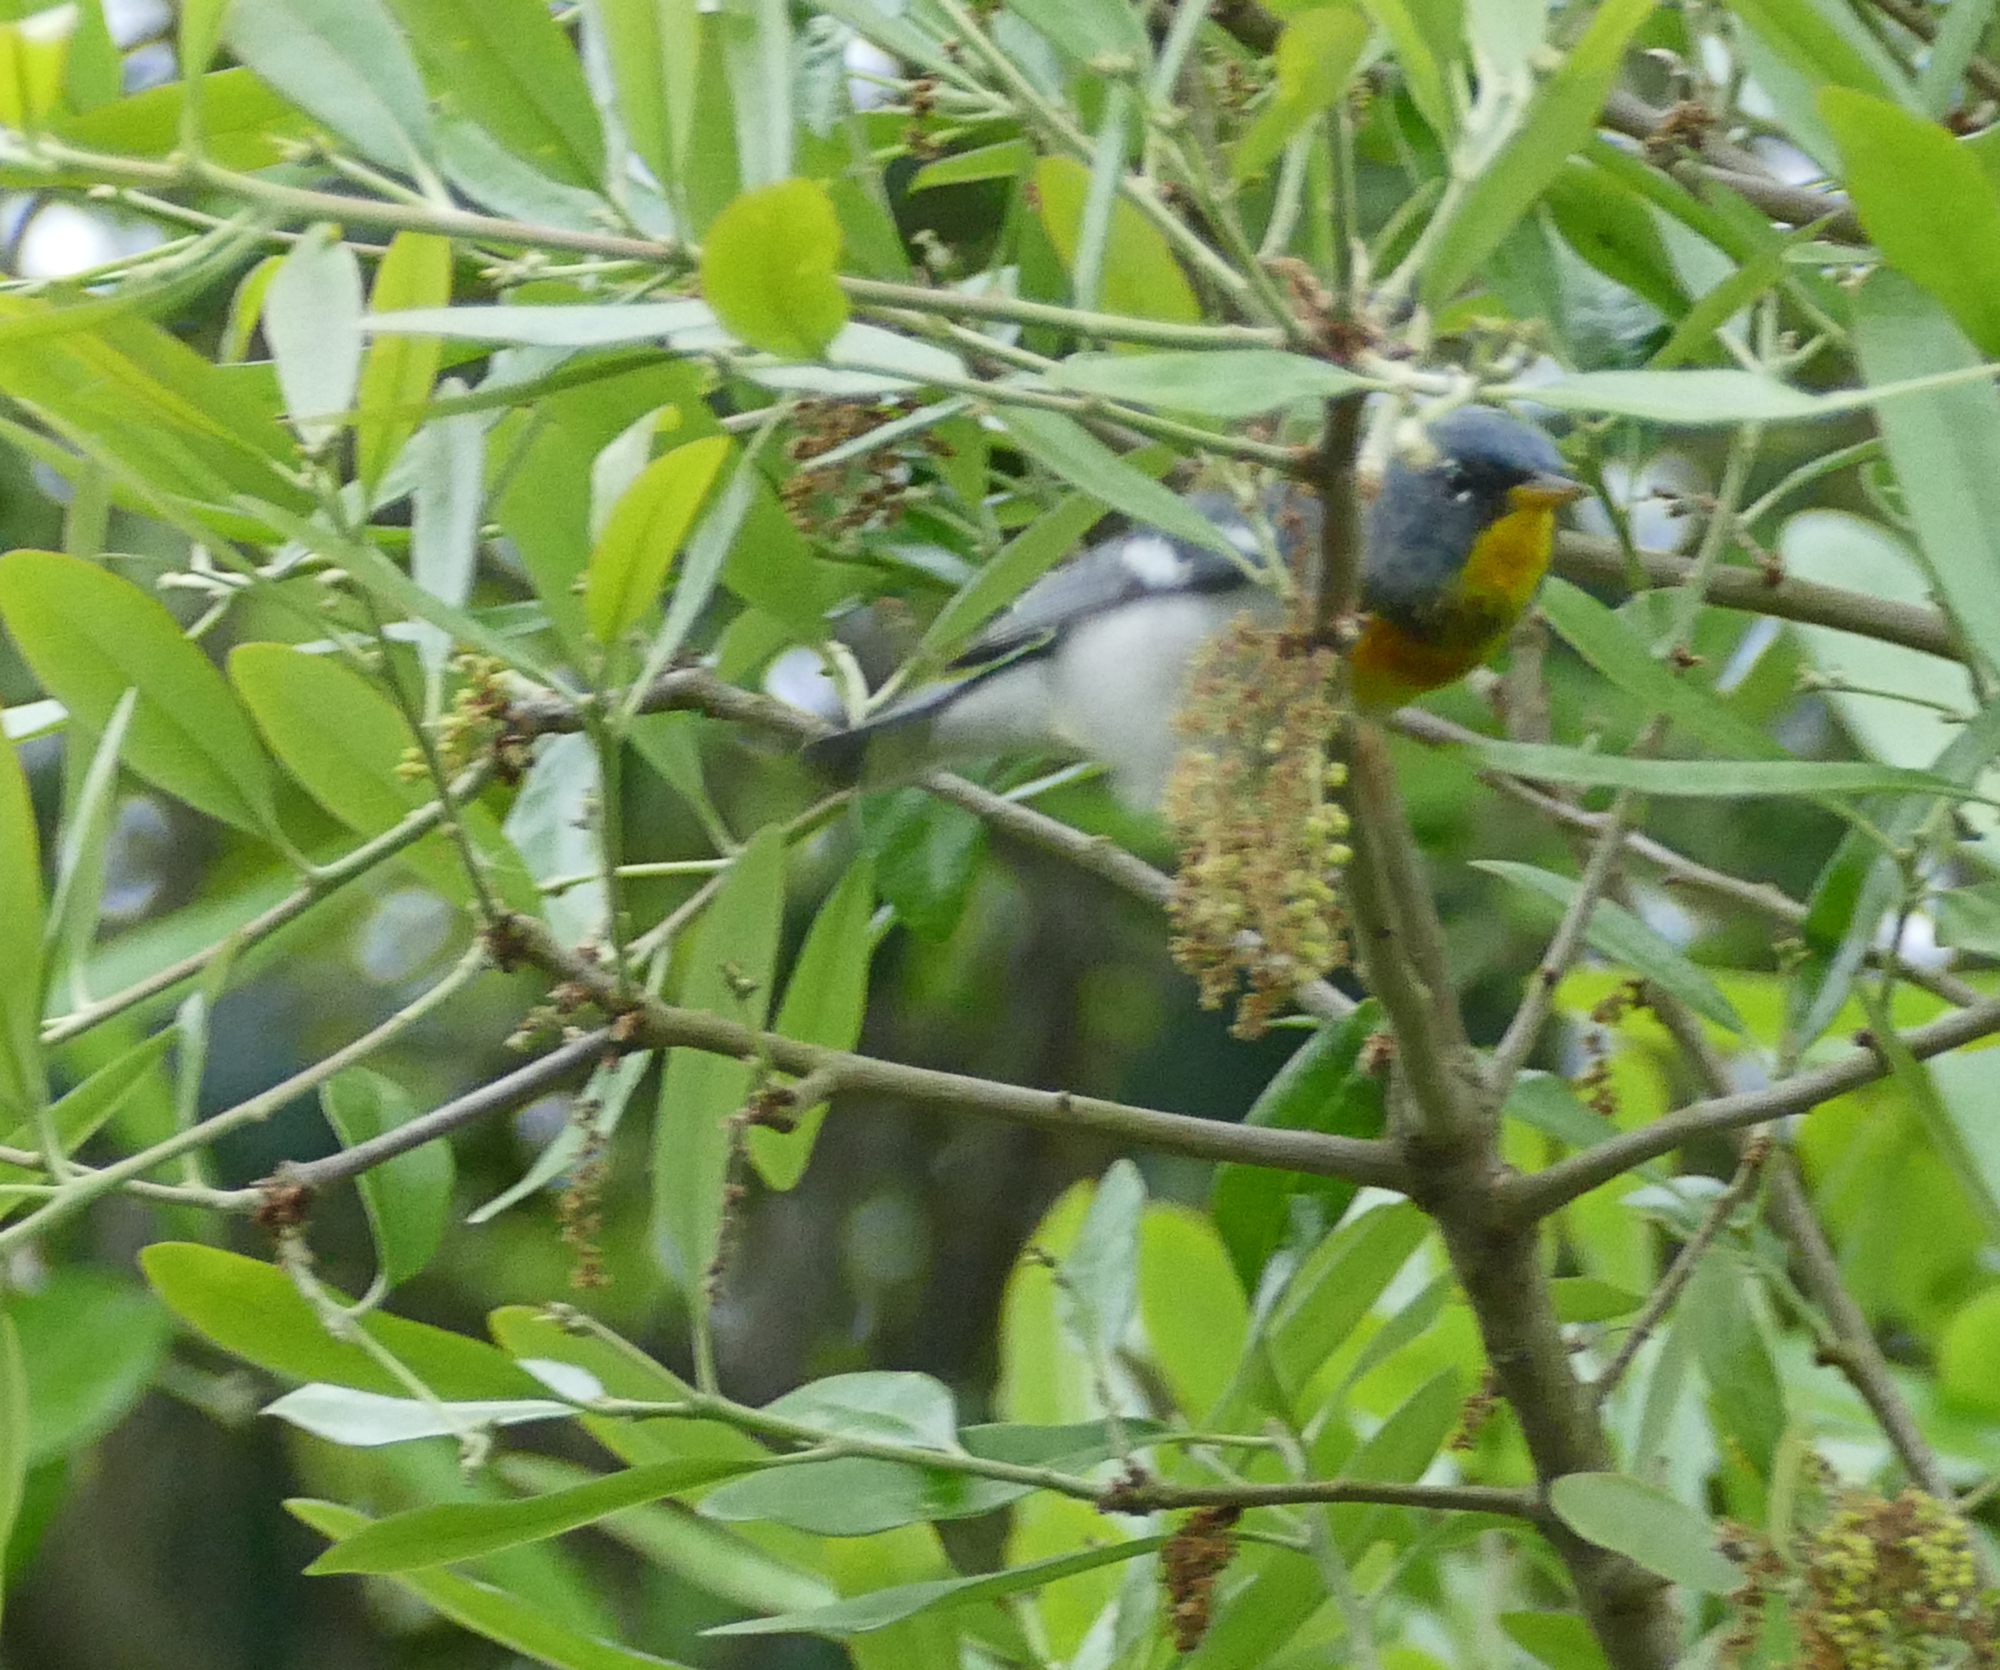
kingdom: Animalia
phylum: Chordata
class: Aves
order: Passeriformes
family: Parulidae
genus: Setophaga
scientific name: Setophaga americana
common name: Northern parula
